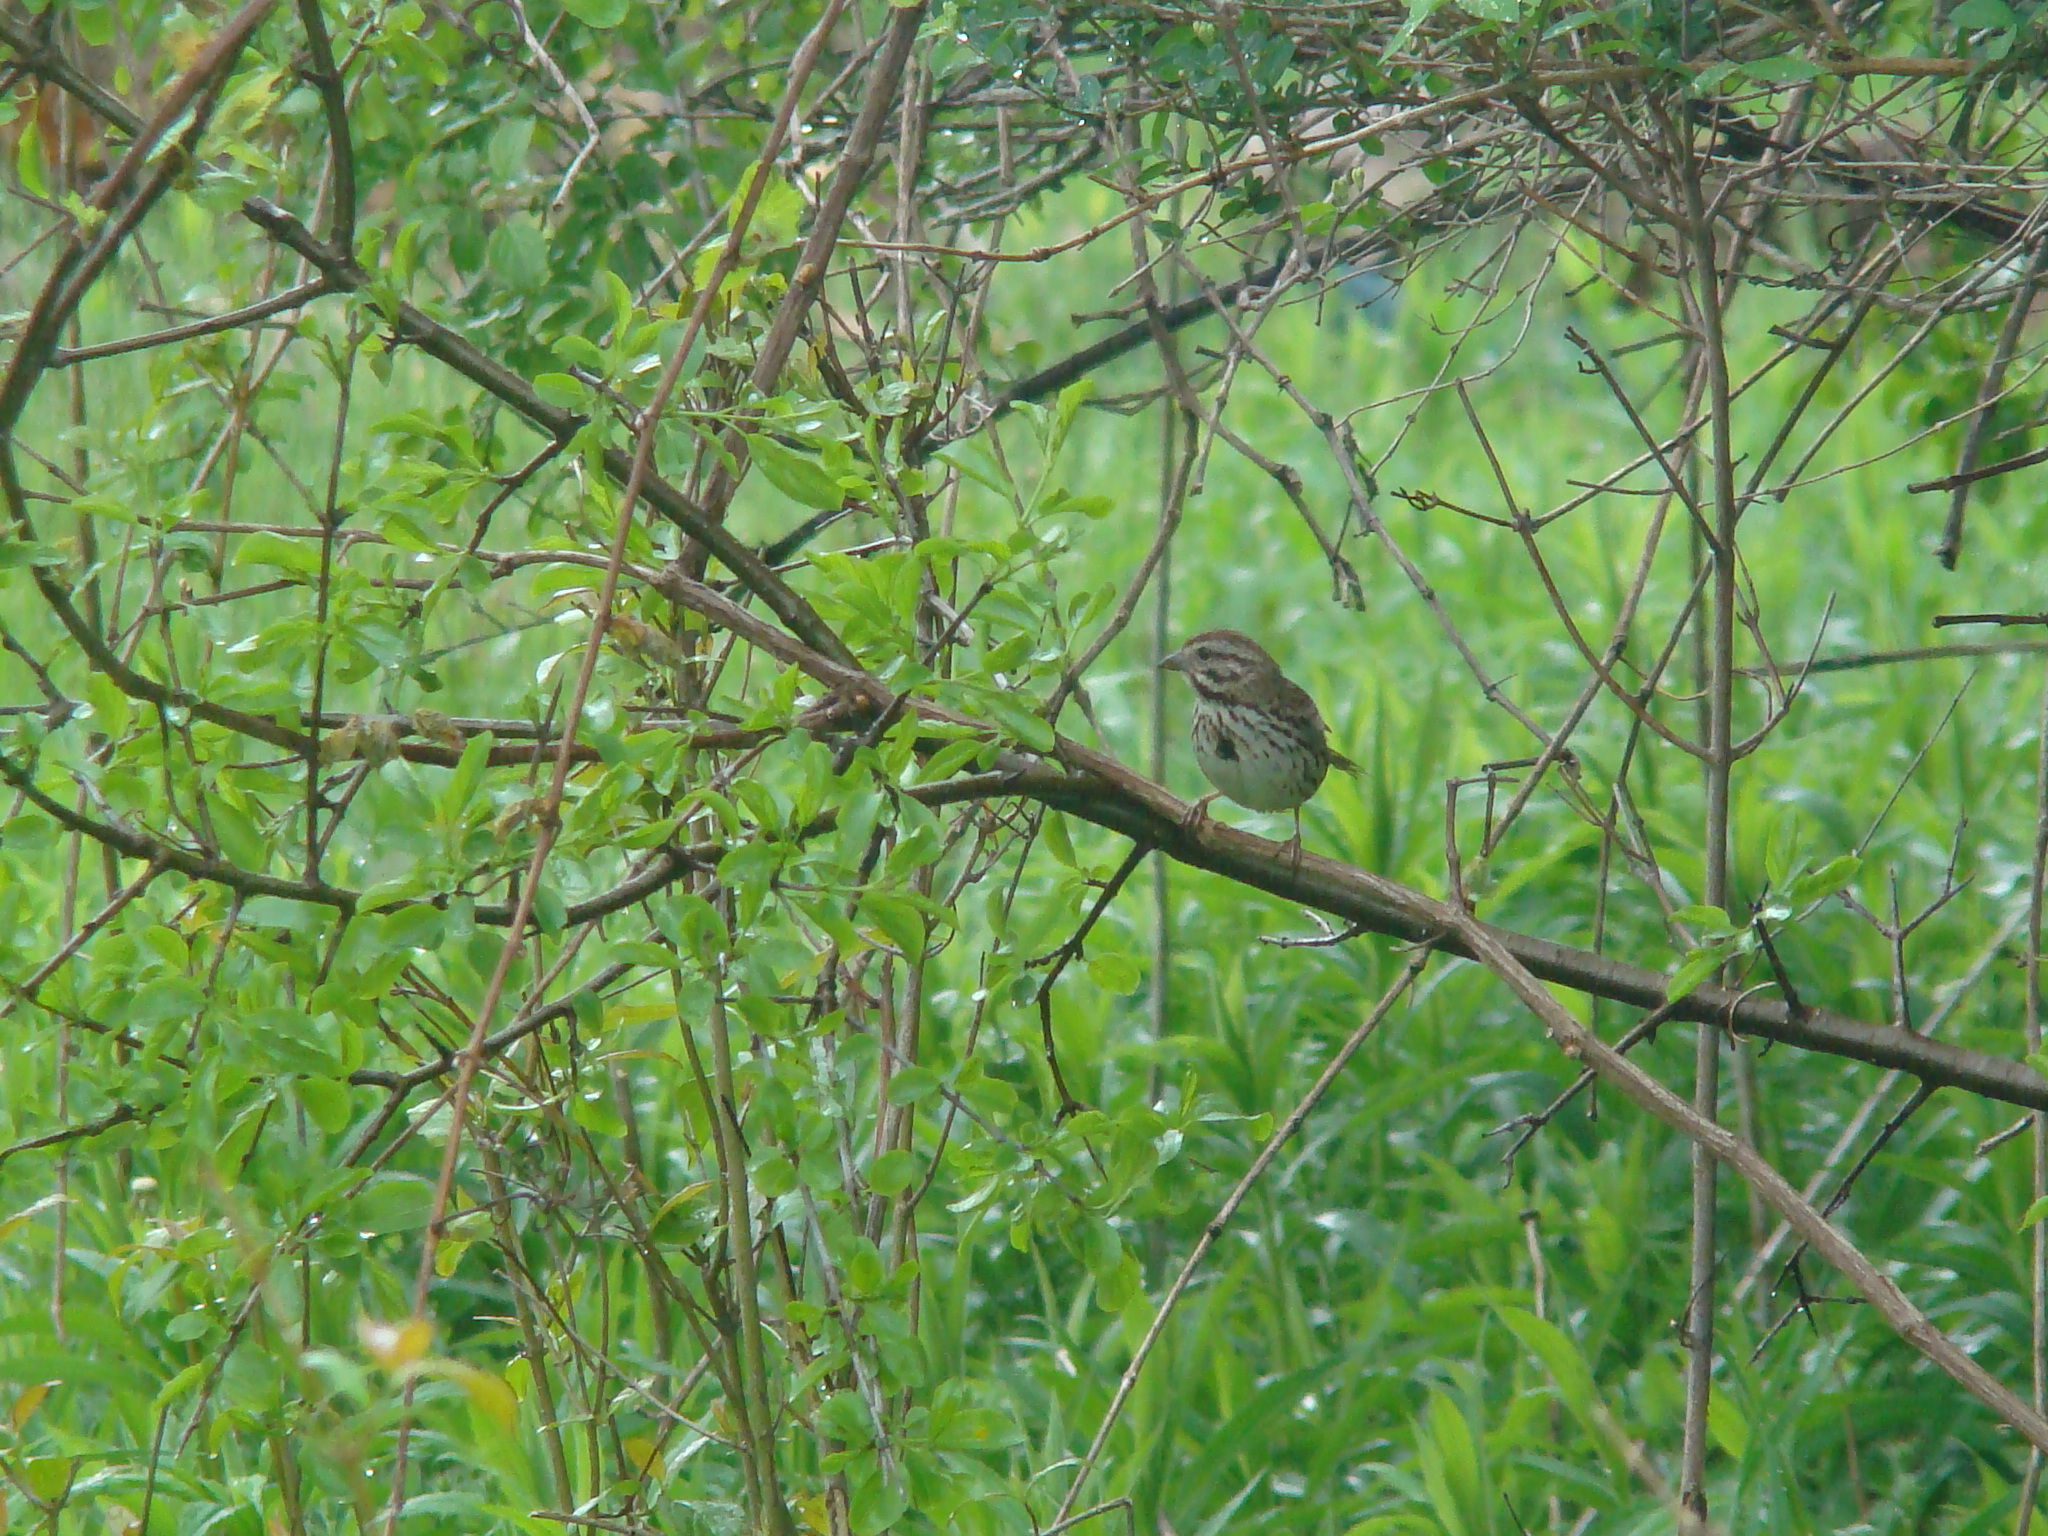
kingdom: Animalia
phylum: Chordata
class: Aves
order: Passeriformes
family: Passerellidae
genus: Melospiza
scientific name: Melospiza melodia
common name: Song sparrow
